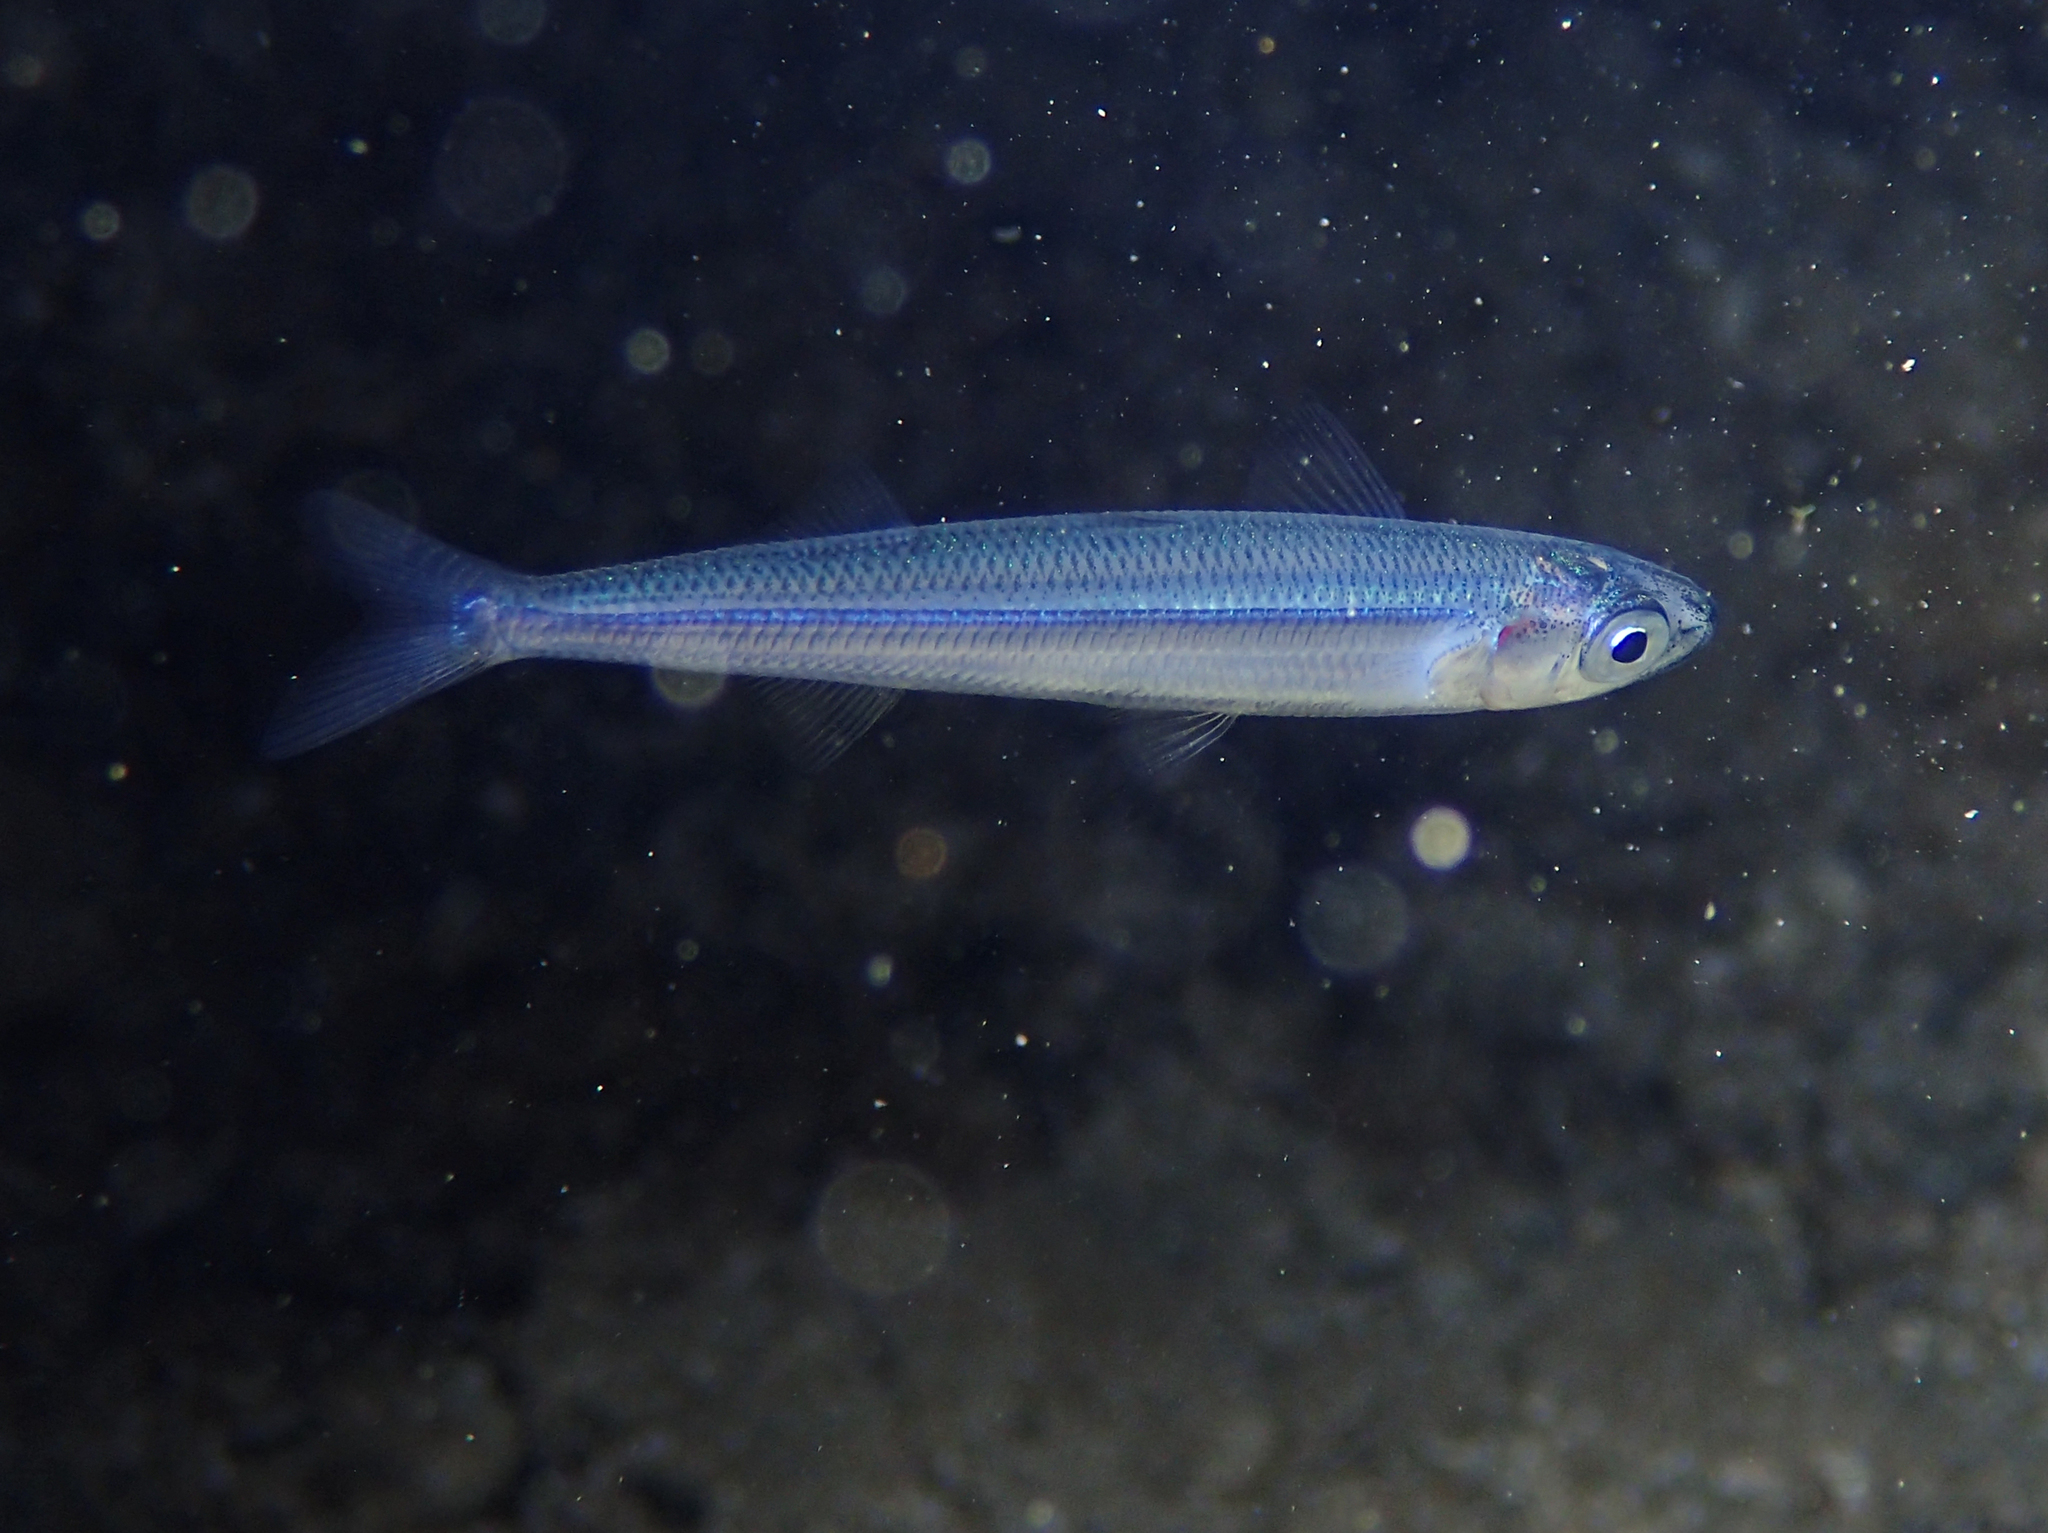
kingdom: Animalia
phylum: Chordata
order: Atheriniformes
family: Atherinidae
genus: Atherina
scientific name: Atherina hepsetus
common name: Mediterranean sand smelt
